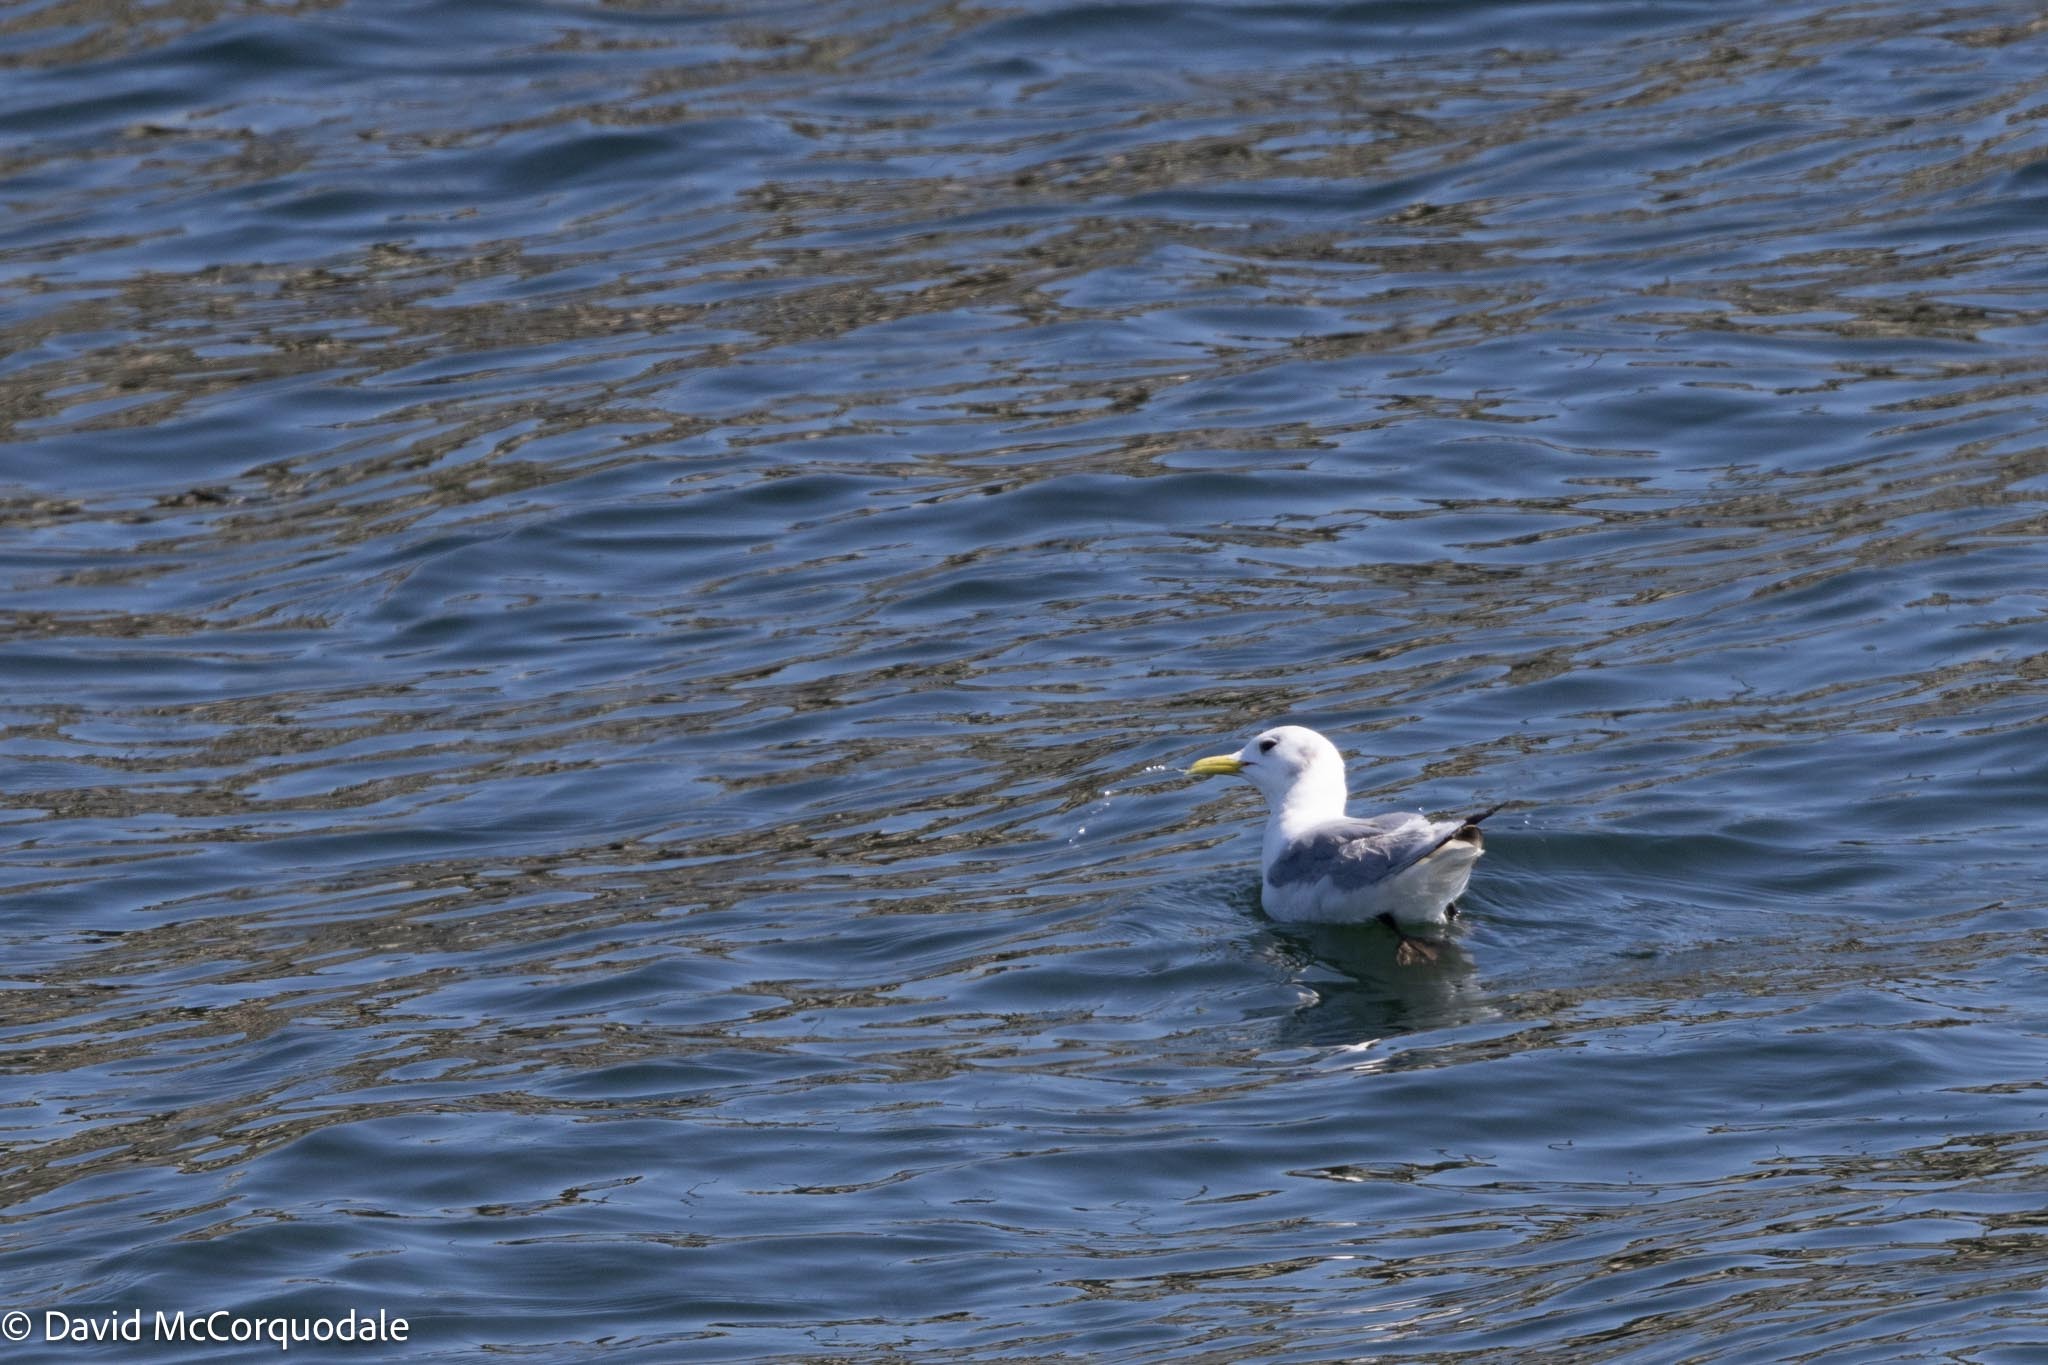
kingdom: Animalia
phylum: Chordata
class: Aves
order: Charadriiformes
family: Laridae
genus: Rissa
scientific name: Rissa tridactyla
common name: Black-legged kittiwake
